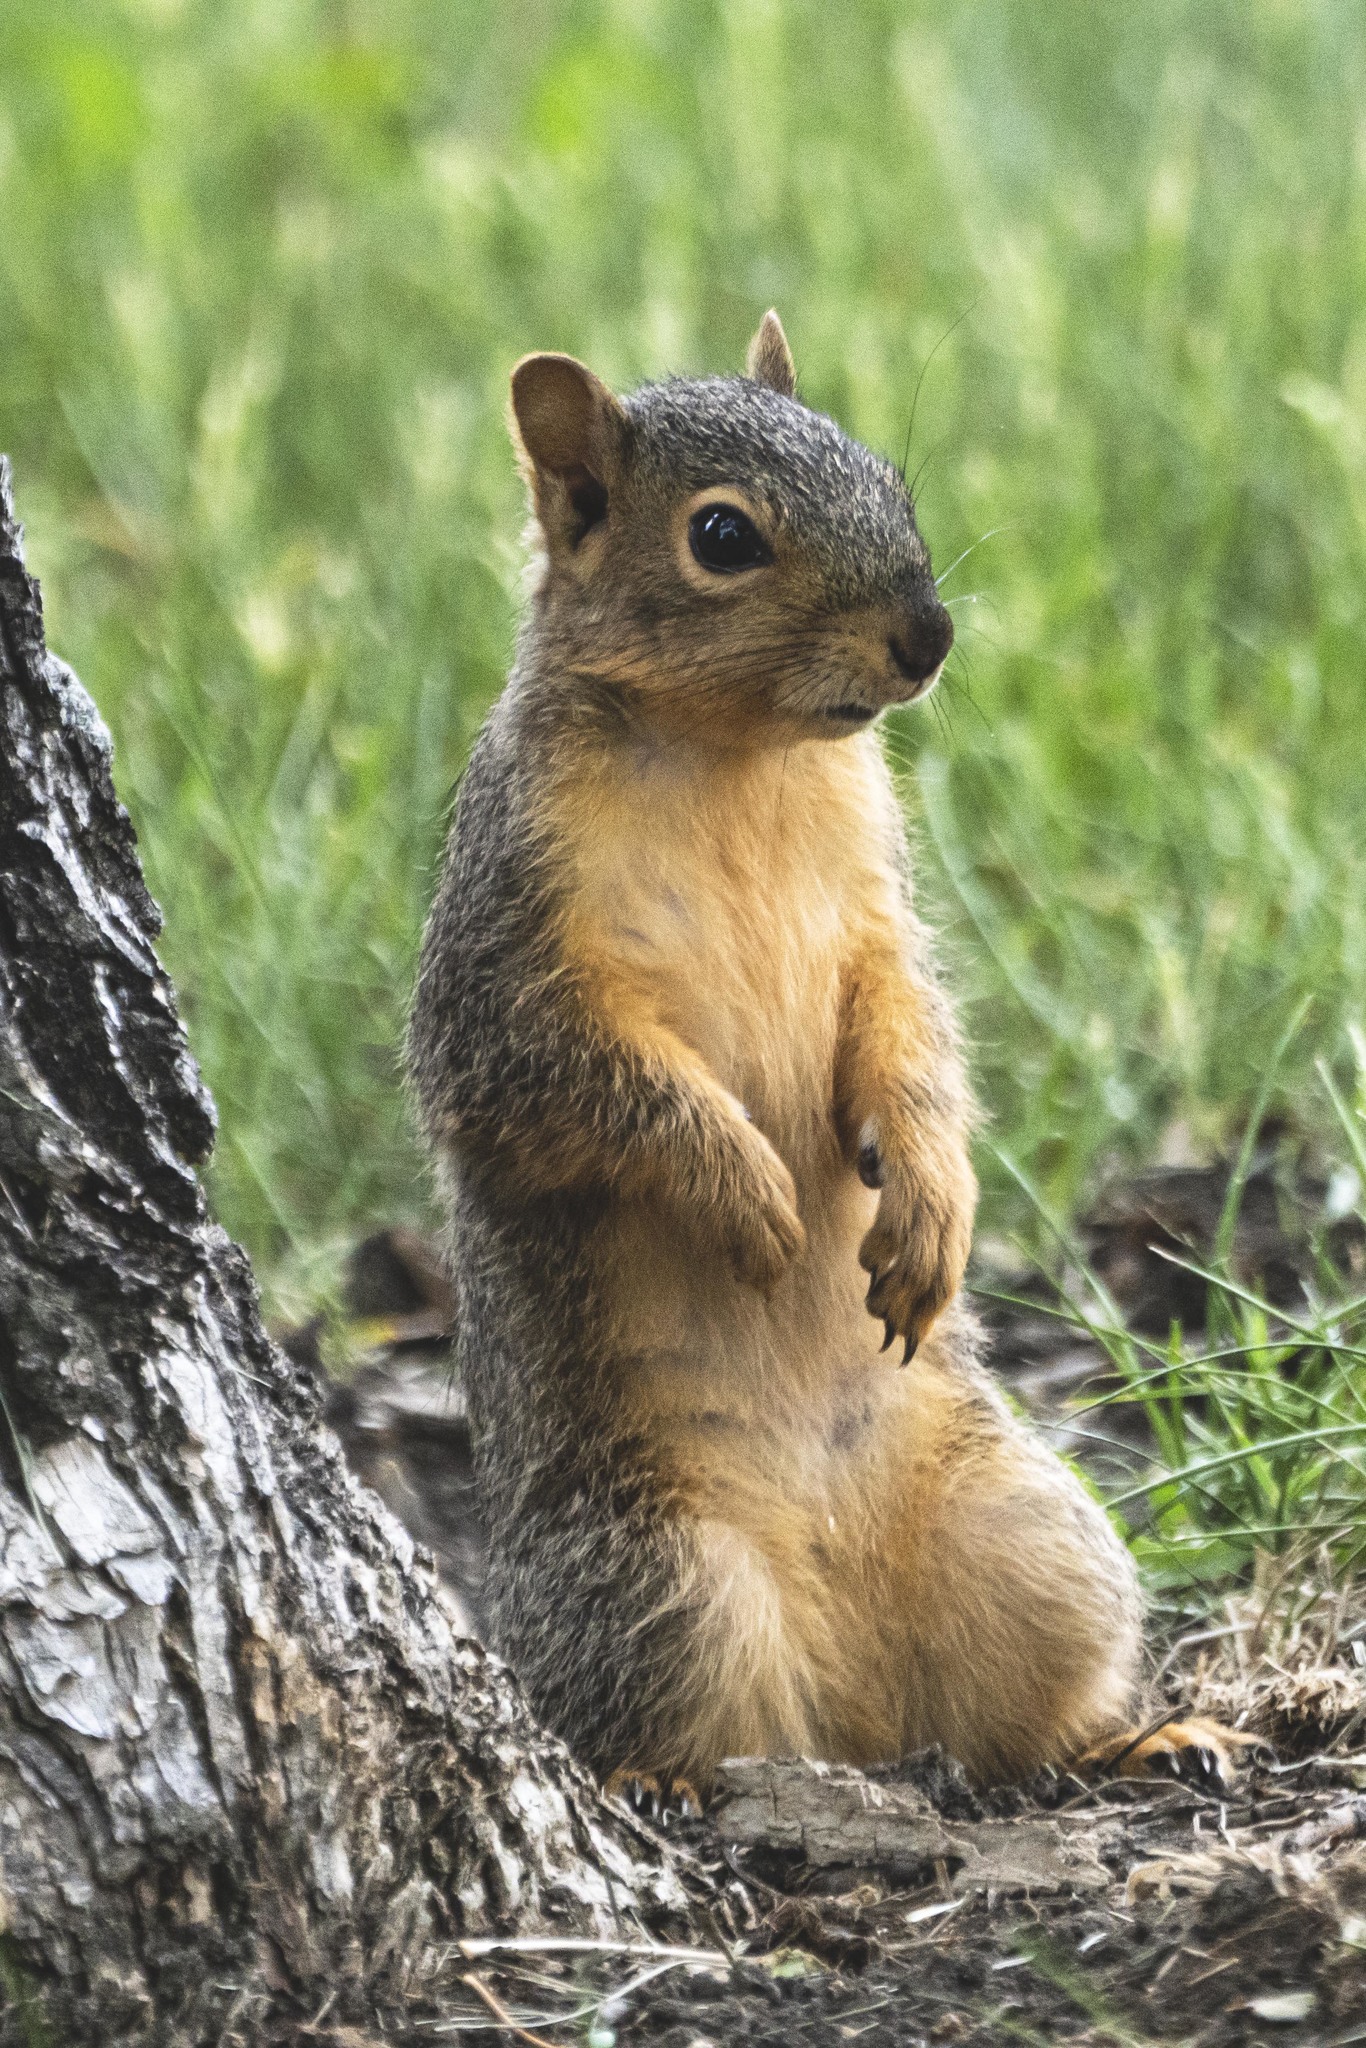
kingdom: Animalia
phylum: Chordata
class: Mammalia
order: Rodentia
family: Sciuridae
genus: Sciurus
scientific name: Sciurus niger
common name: Fox squirrel
